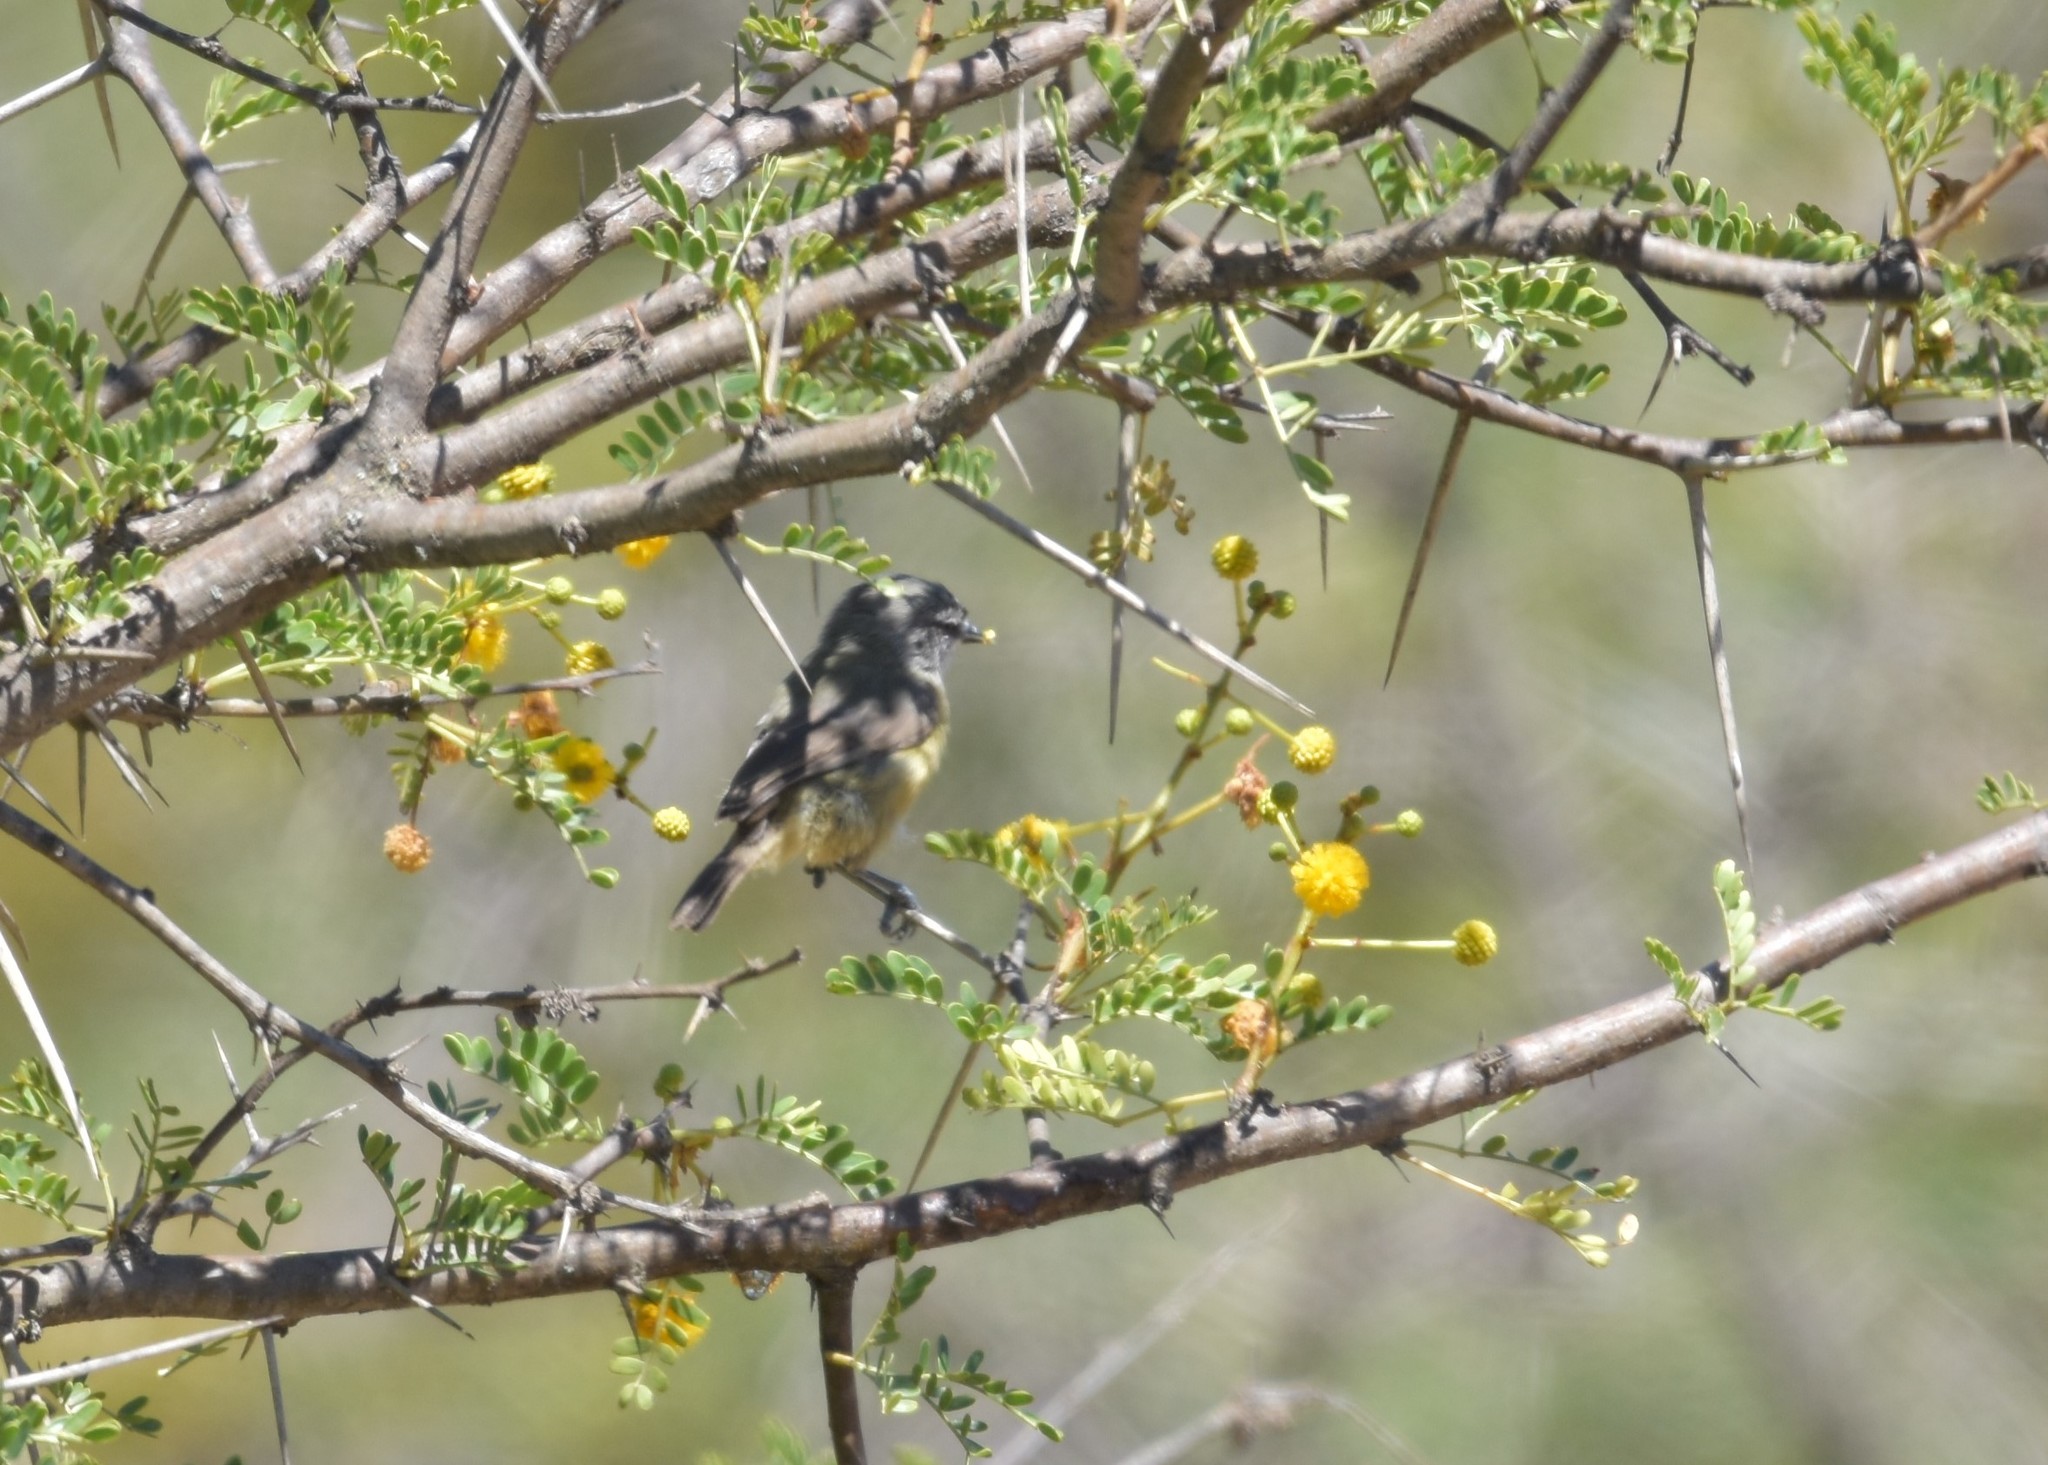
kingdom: Animalia
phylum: Chordata
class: Aves
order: Passeriformes
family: Remizidae
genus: Anthoscopus
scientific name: Anthoscopus minutus
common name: Cape penduline tit
